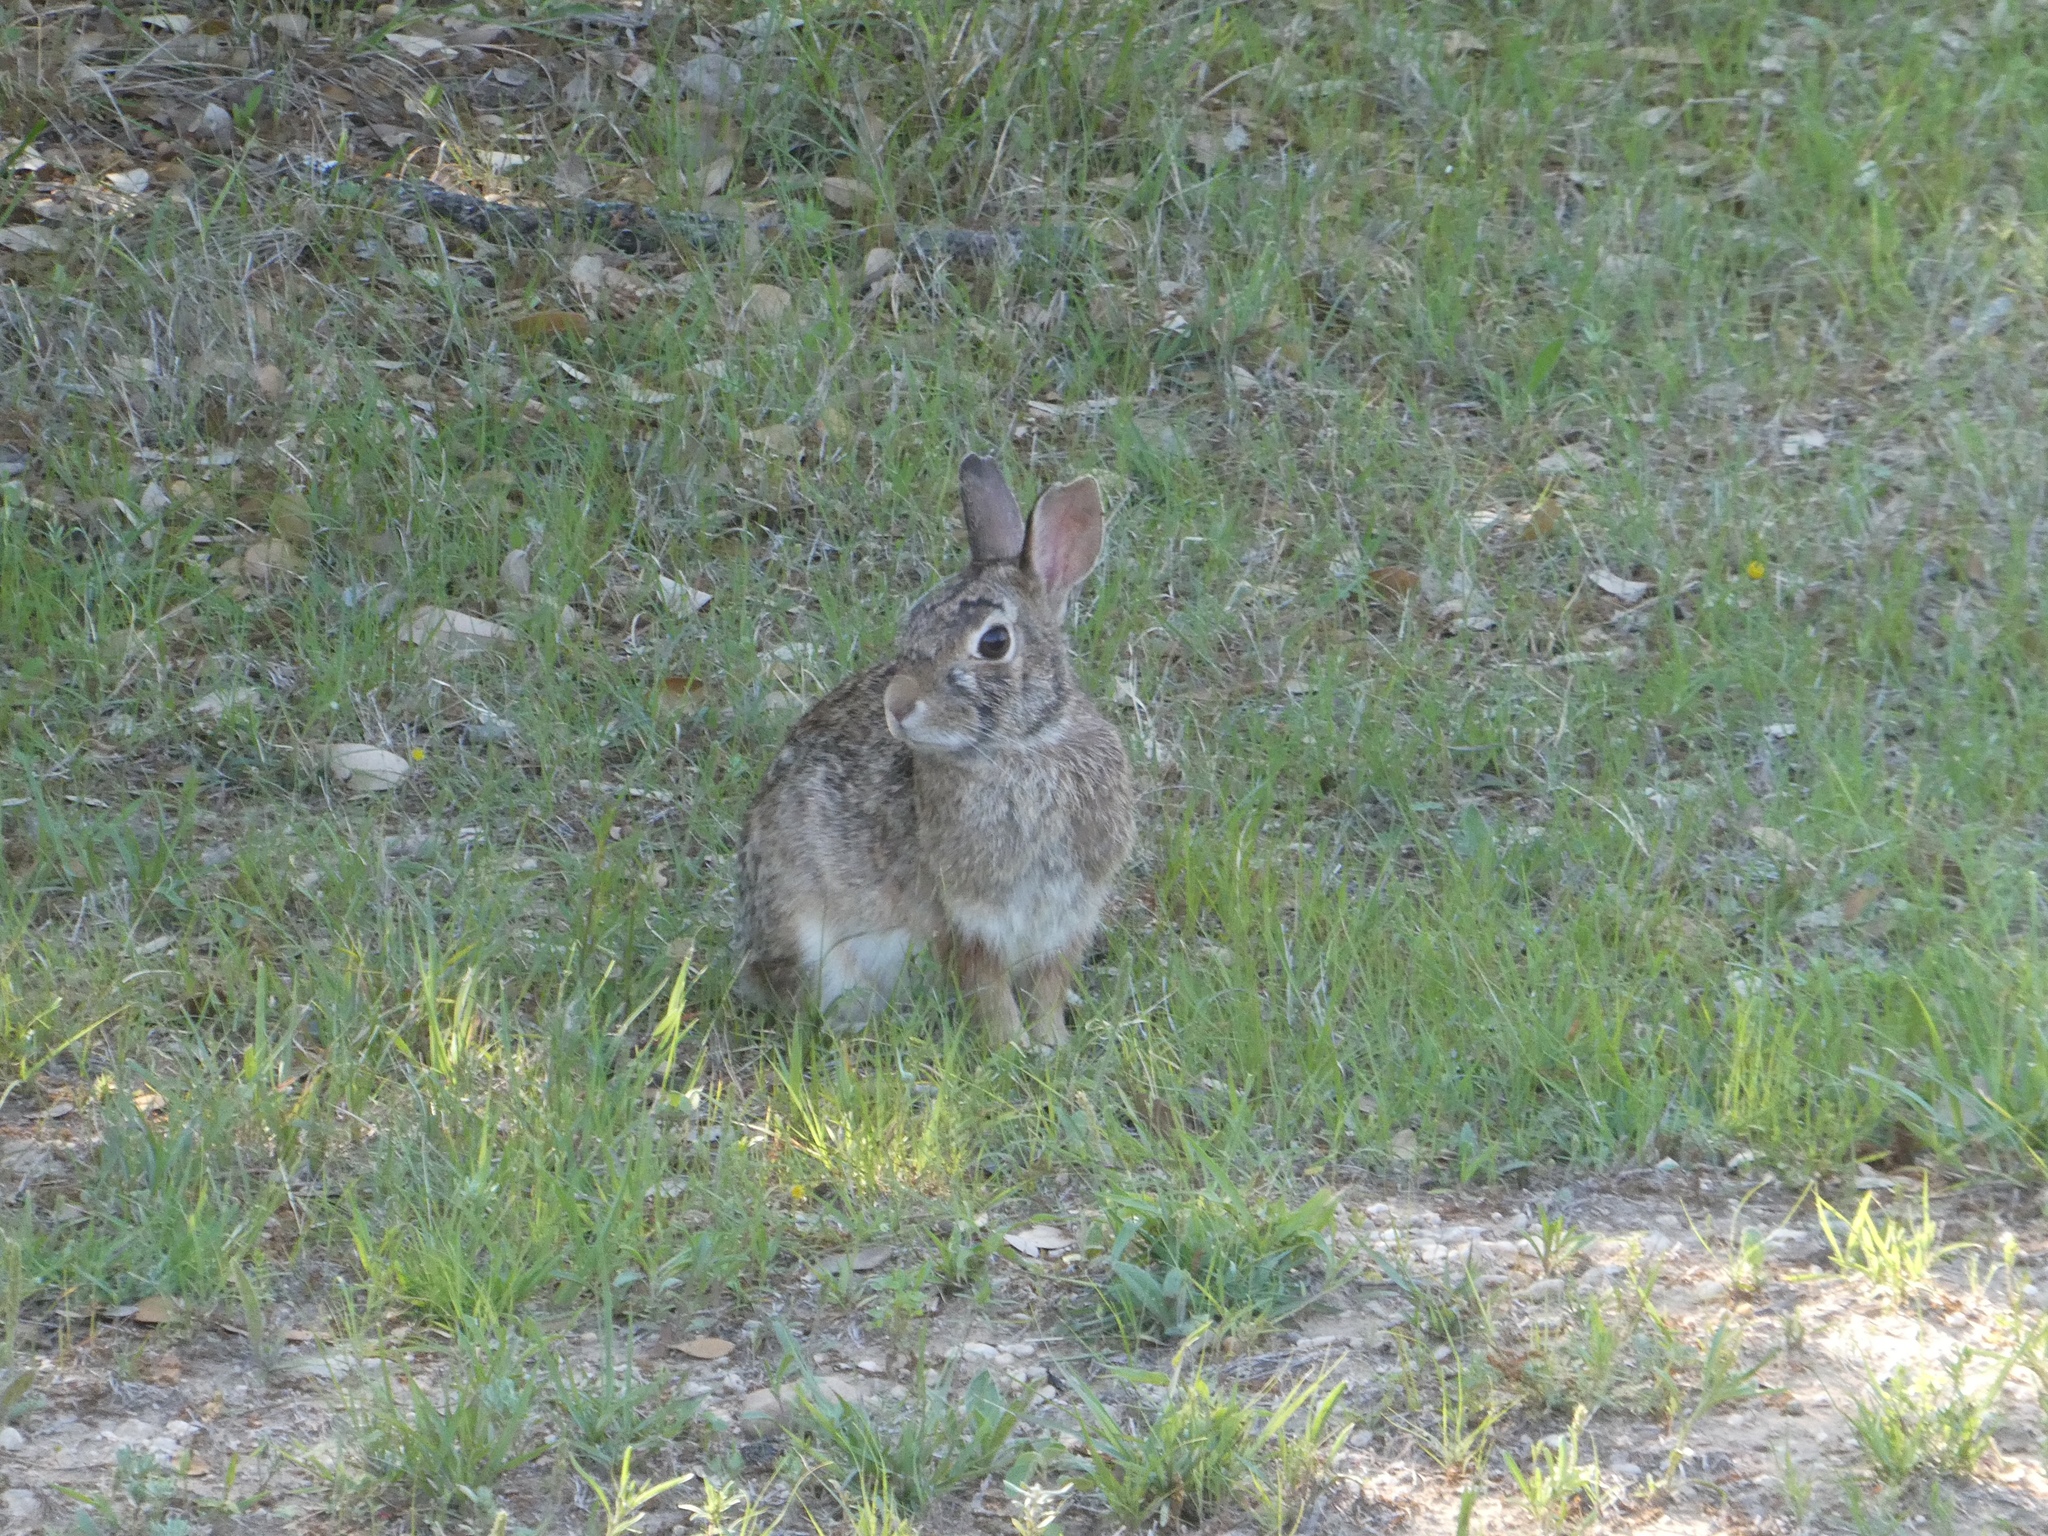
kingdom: Animalia
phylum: Chordata
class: Mammalia
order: Lagomorpha
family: Leporidae
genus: Sylvilagus
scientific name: Sylvilagus floridanus
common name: Eastern cottontail
